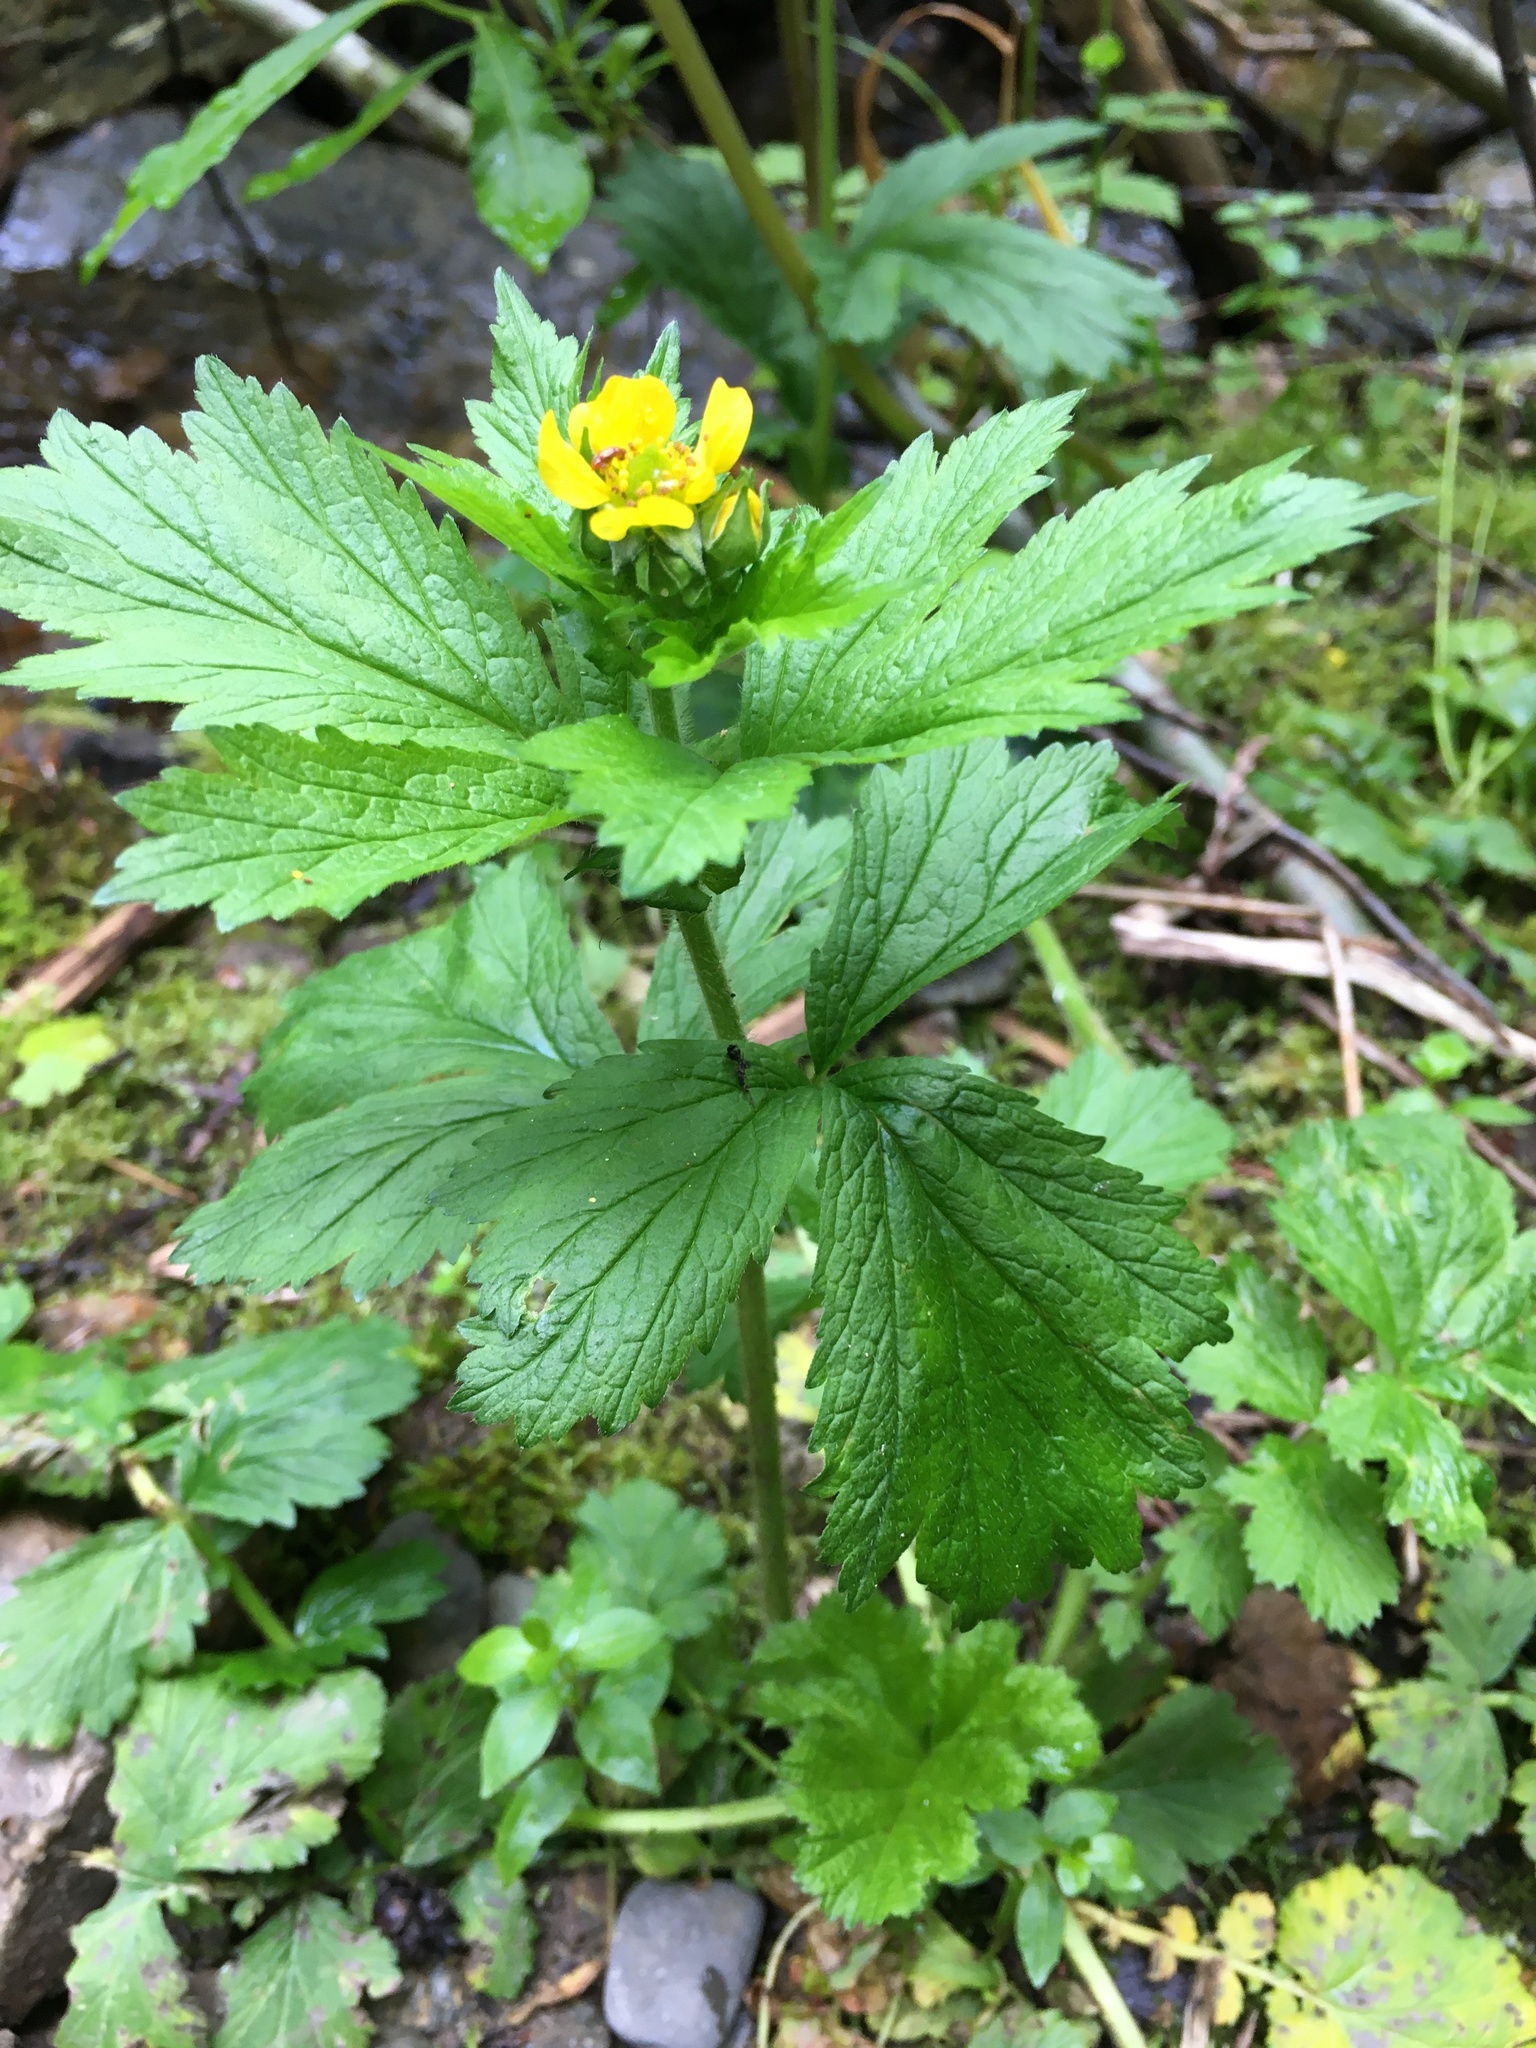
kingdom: Plantae
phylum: Tracheophyta
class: Magnoliopsida
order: Rosales
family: Rosaceae
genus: Geum
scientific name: Geum macrophyllum
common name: Large-leaved avens
